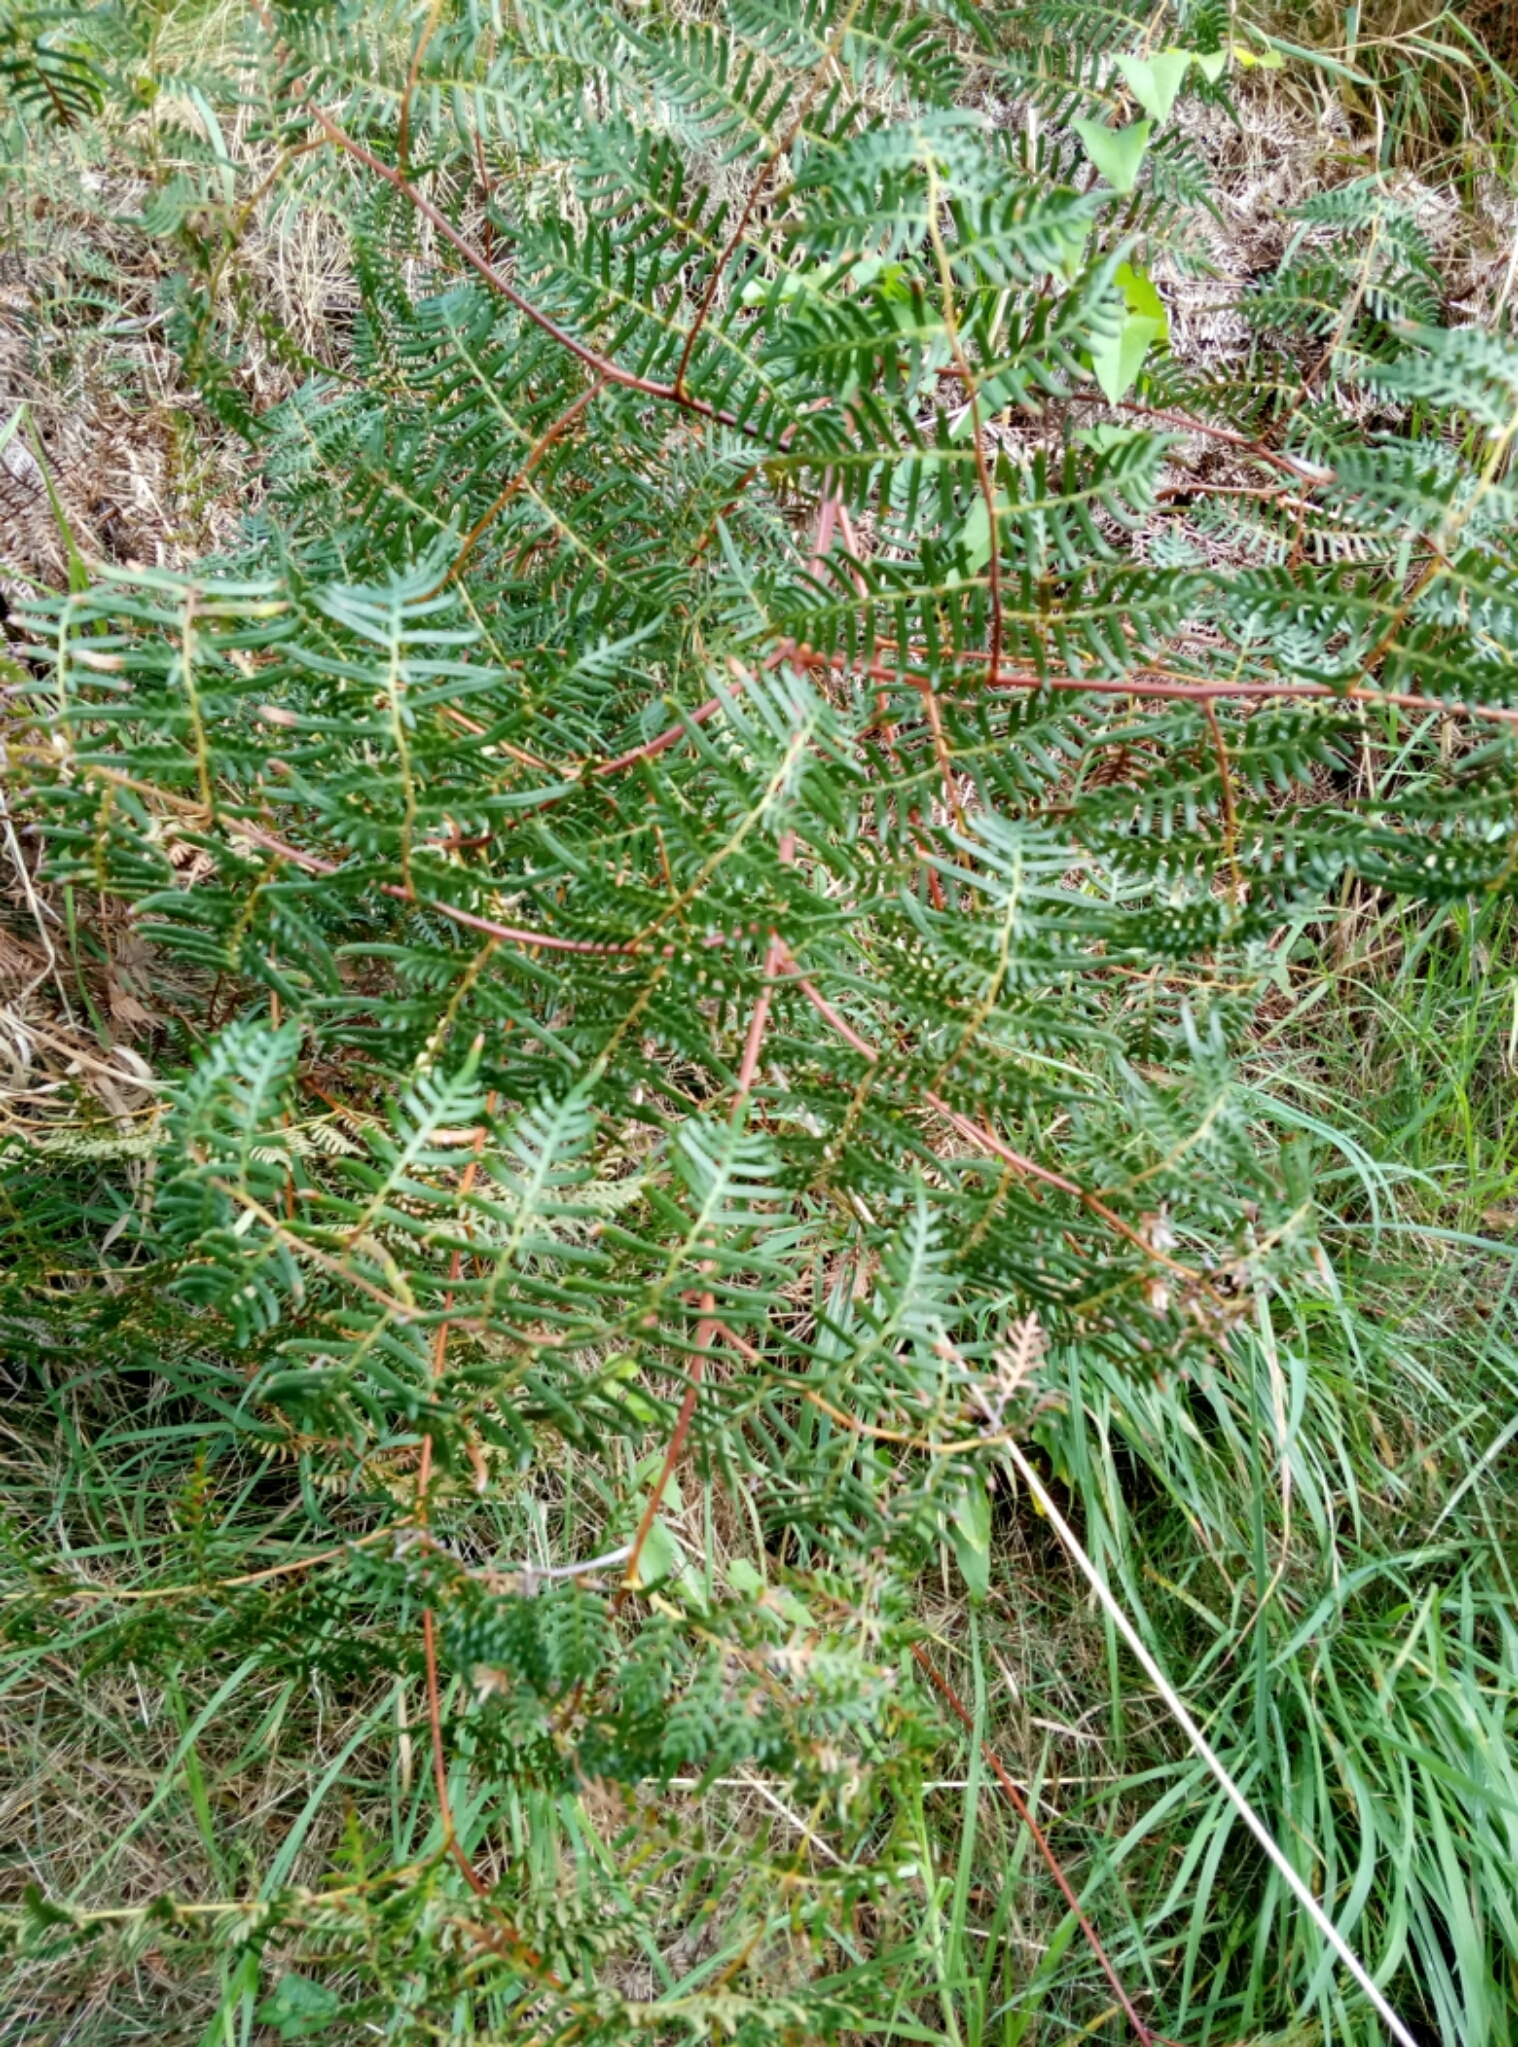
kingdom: Plantae
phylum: Tracheophyta
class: Polypodiopsida
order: Polypodiales
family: Dennstaedtiaceae
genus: Pteridium
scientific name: Pteridium esculentum
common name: Bracken fern
